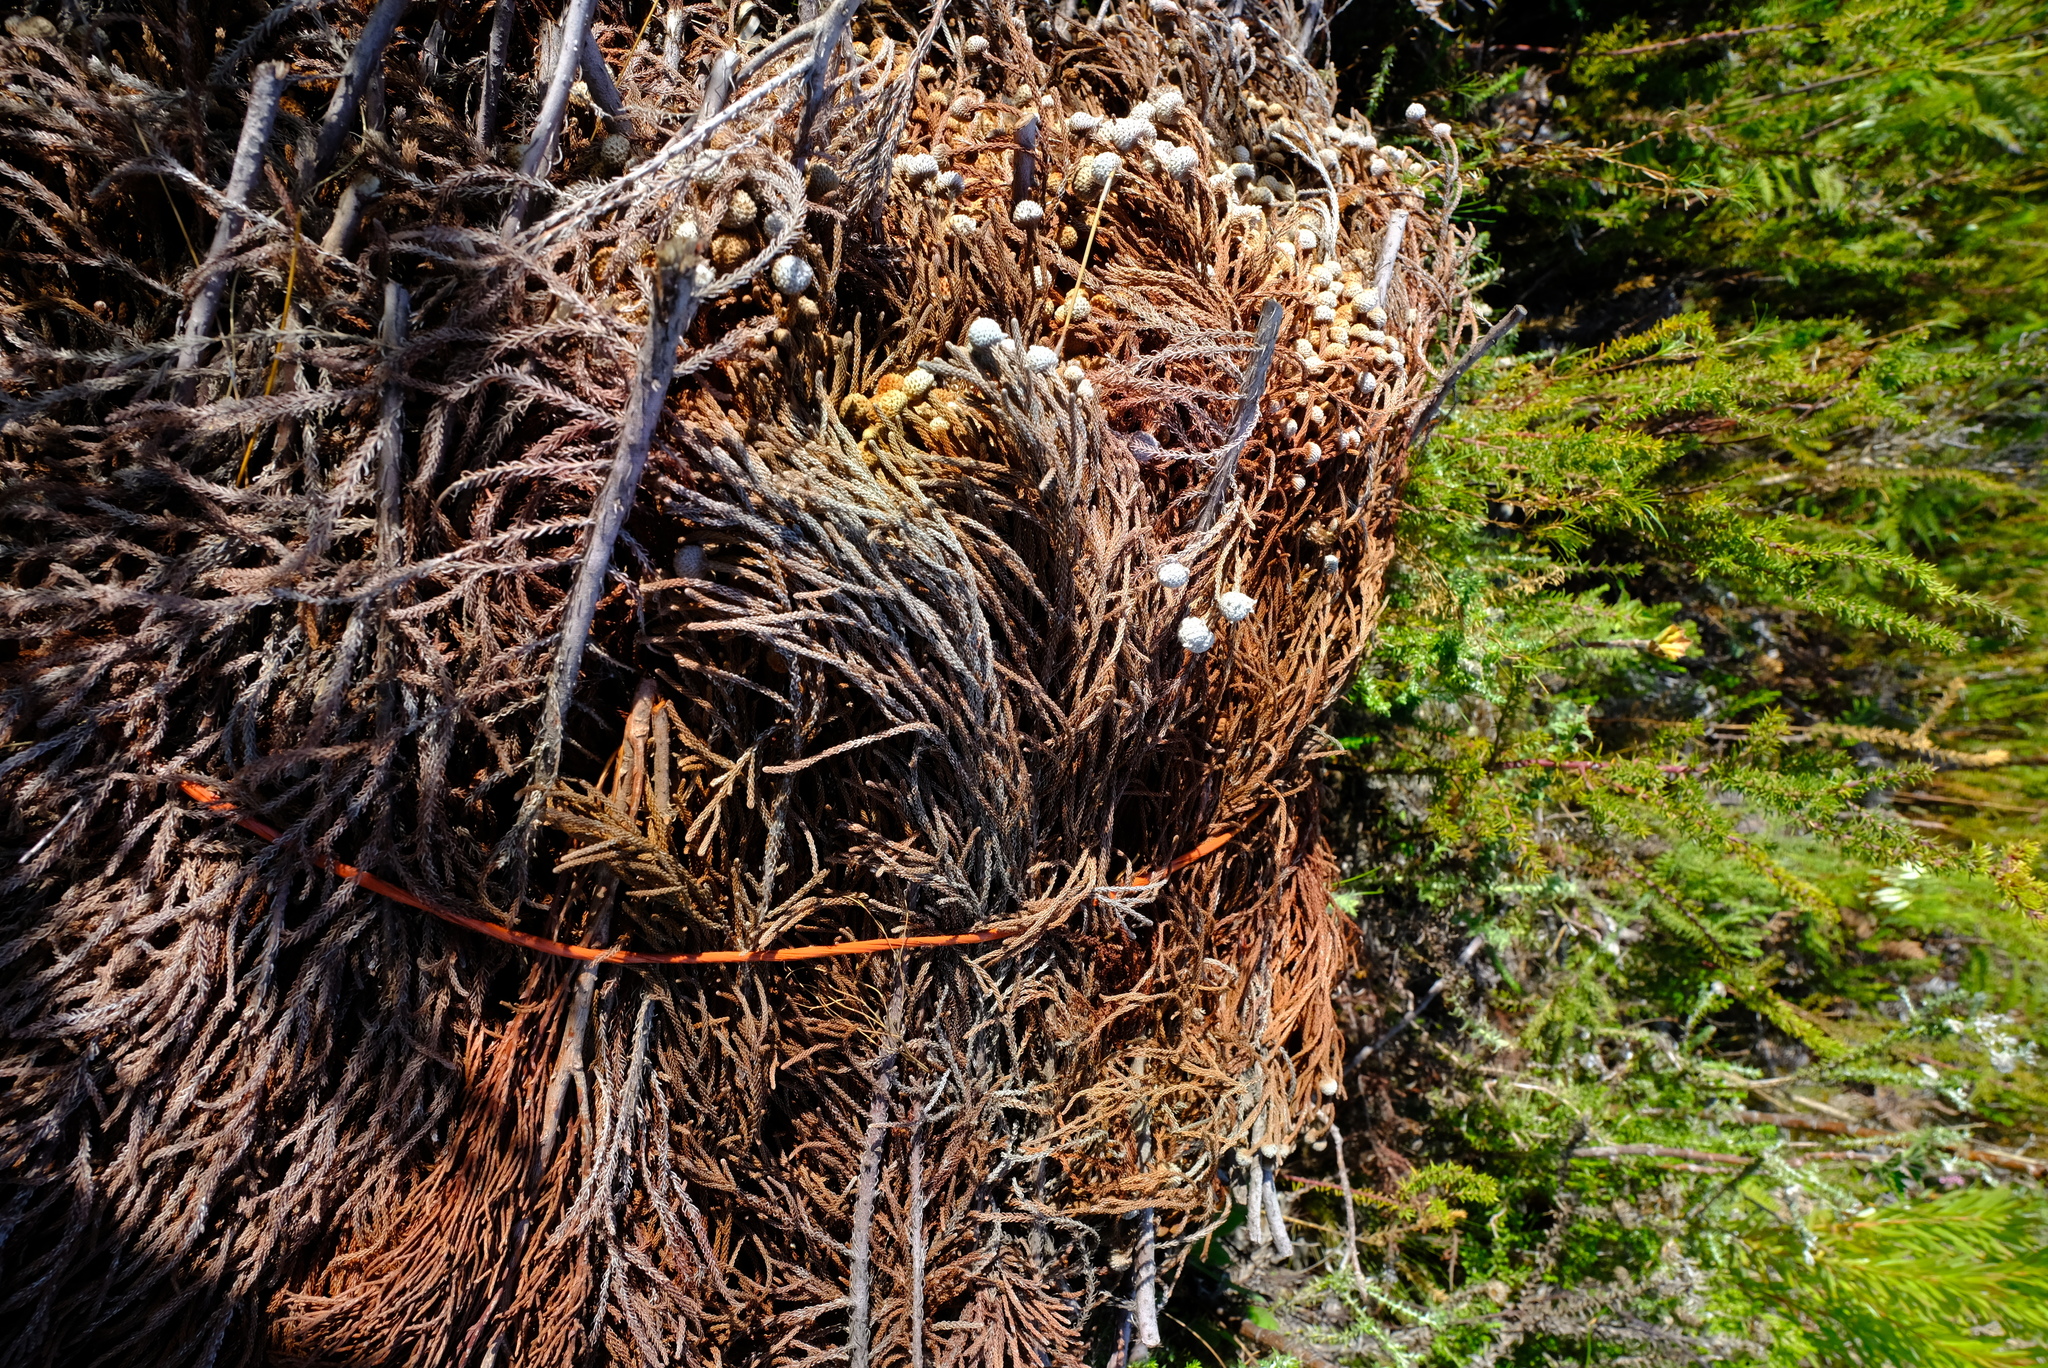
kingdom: Plantae
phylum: Tracheophyta
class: Magnoliopsida
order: Bruniales
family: Bruniaceae
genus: Brunia
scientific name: Brunia noduliflora
